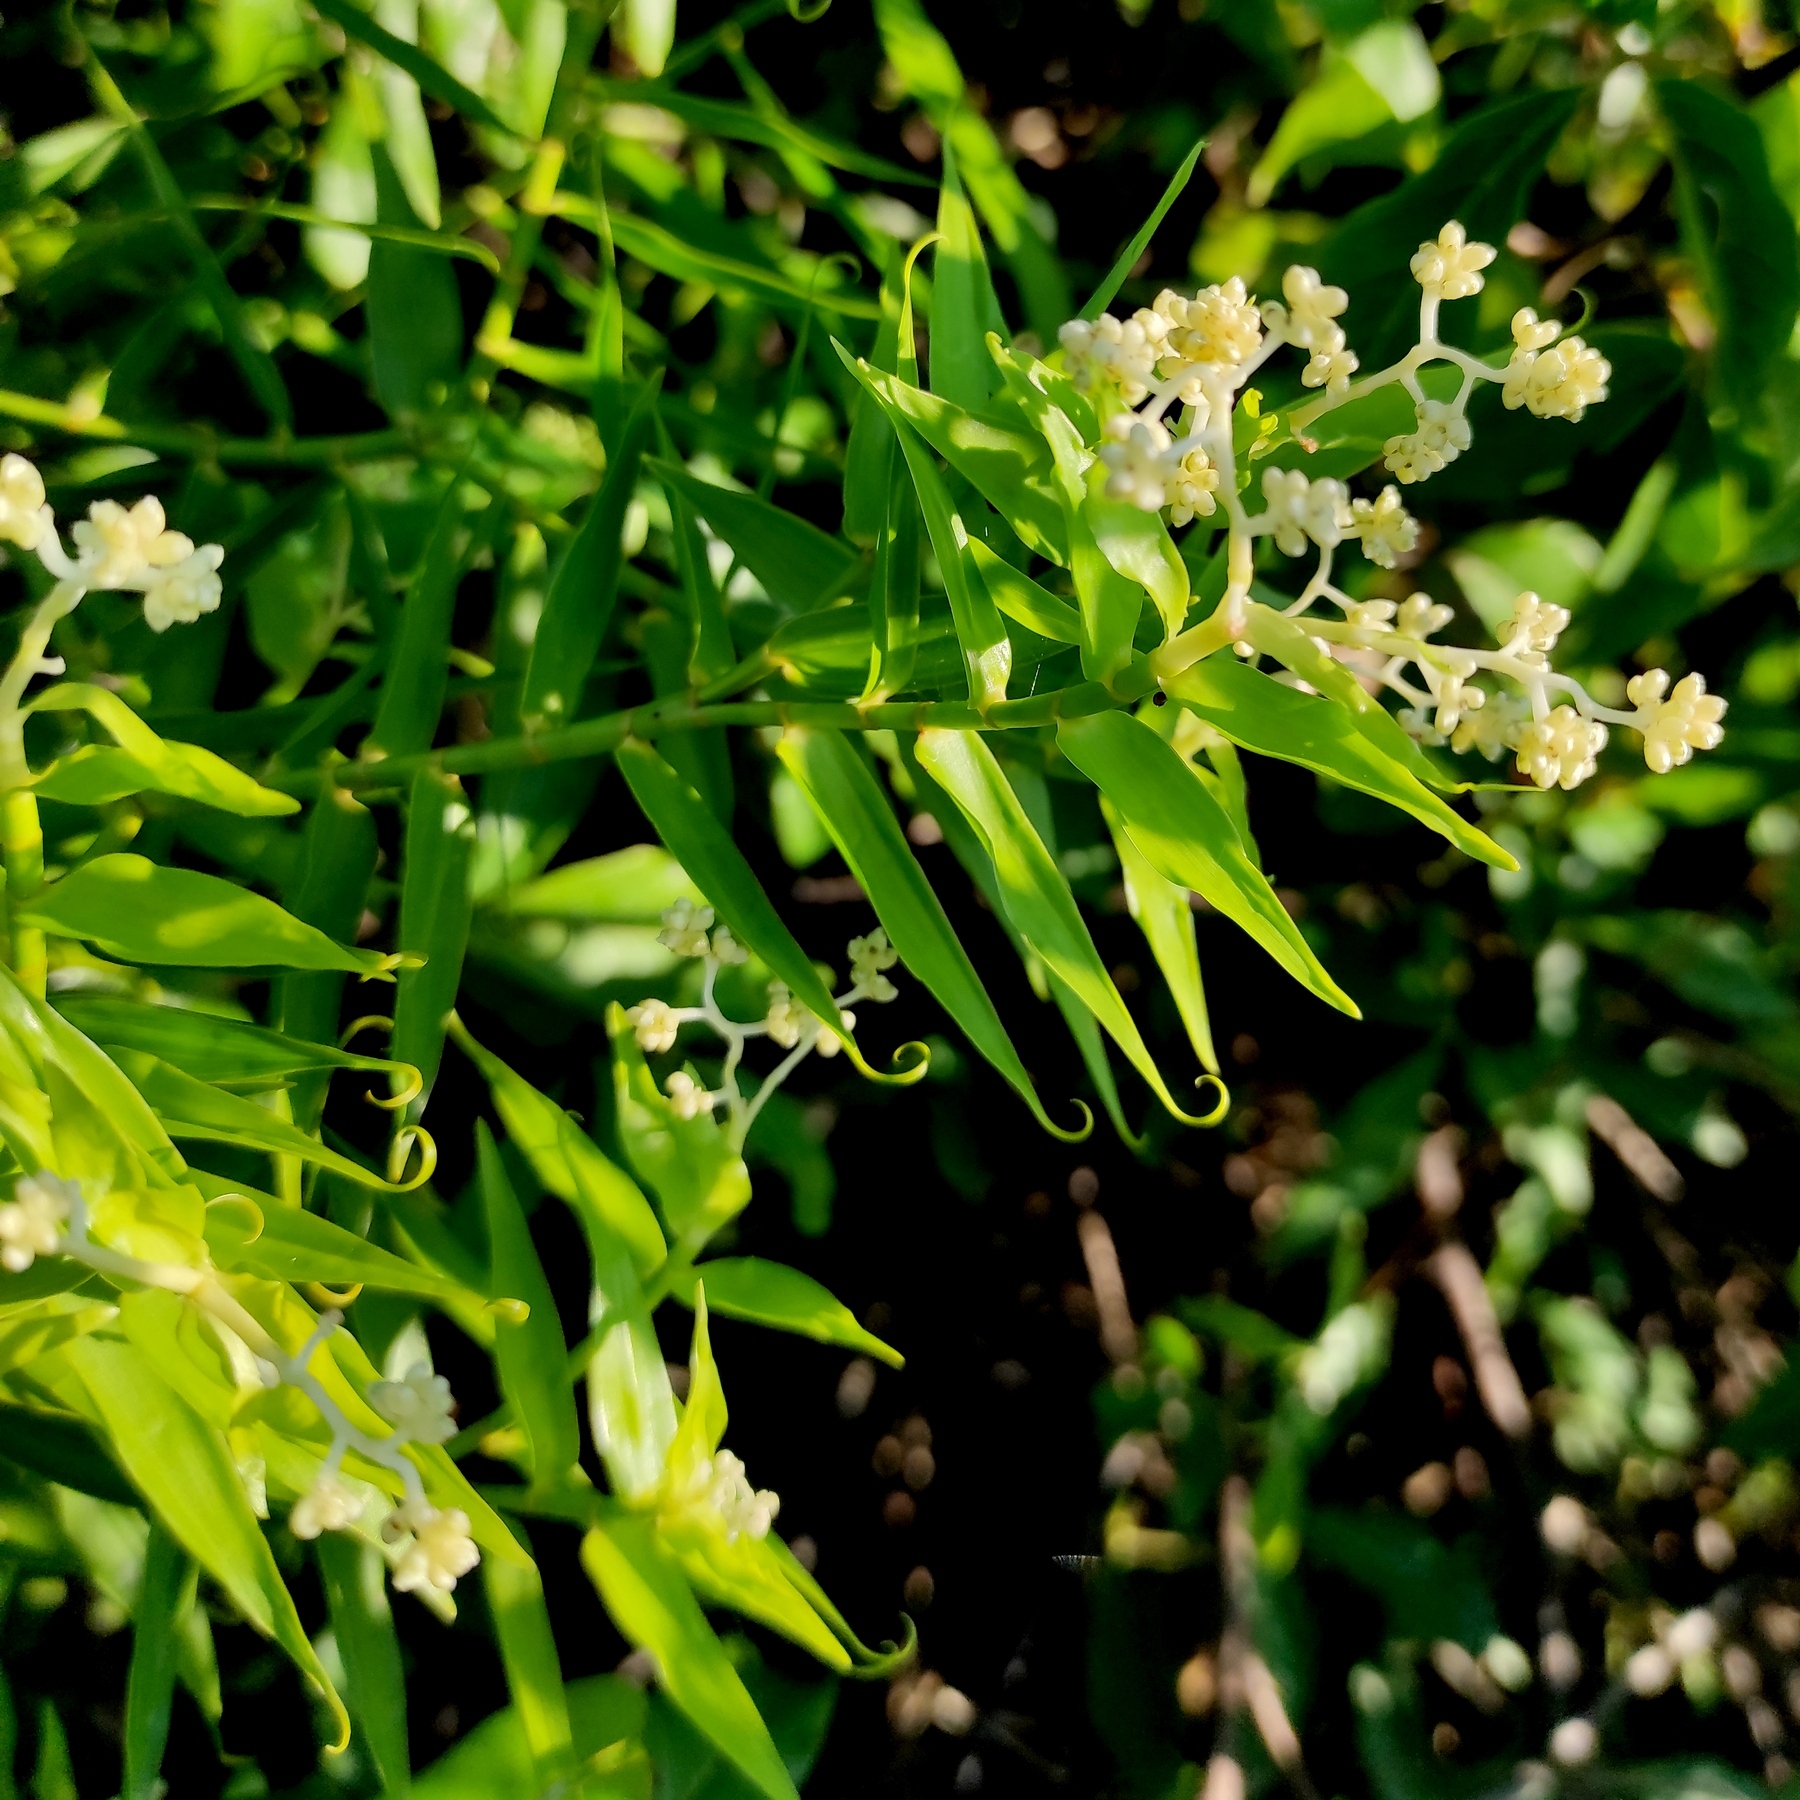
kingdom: Plantae
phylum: Tracheophyta
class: Liliopsida
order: Poales
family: Flagellariaceae
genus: Flagellaria
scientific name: Flagellaria indica
